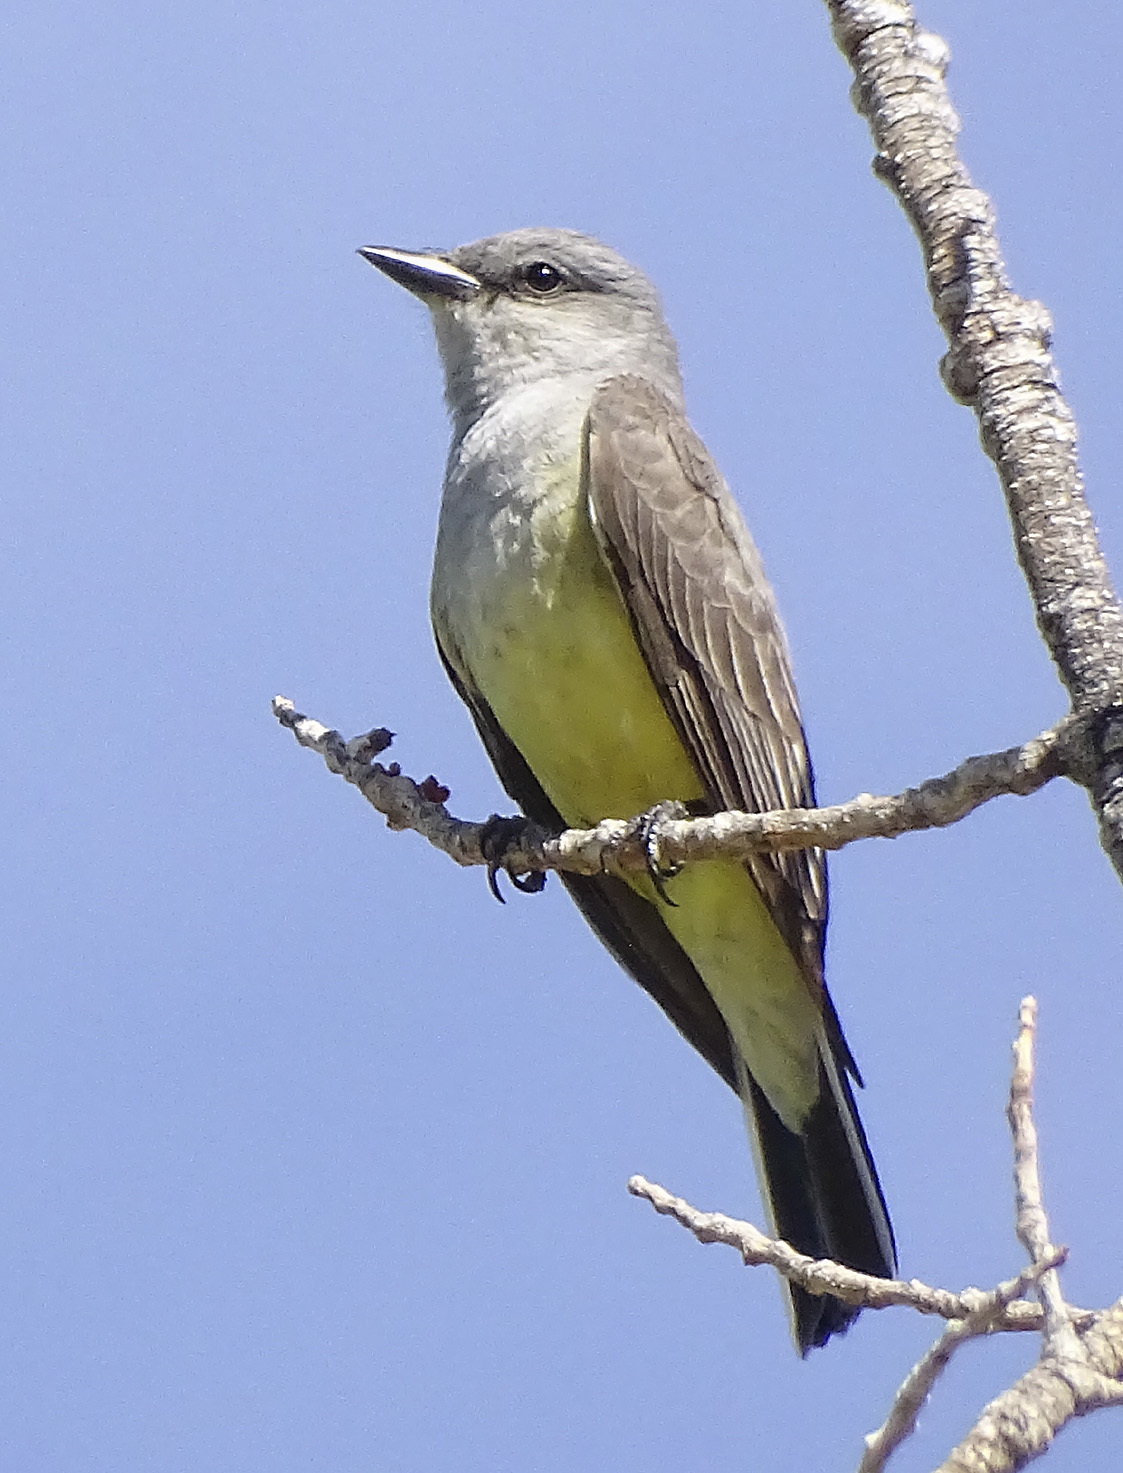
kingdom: Animalia
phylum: Chordata
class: Aves
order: Passeriformes
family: Tyrannidae
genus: Tyrannus
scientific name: Tyrannus verticalis
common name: Western kingbird
